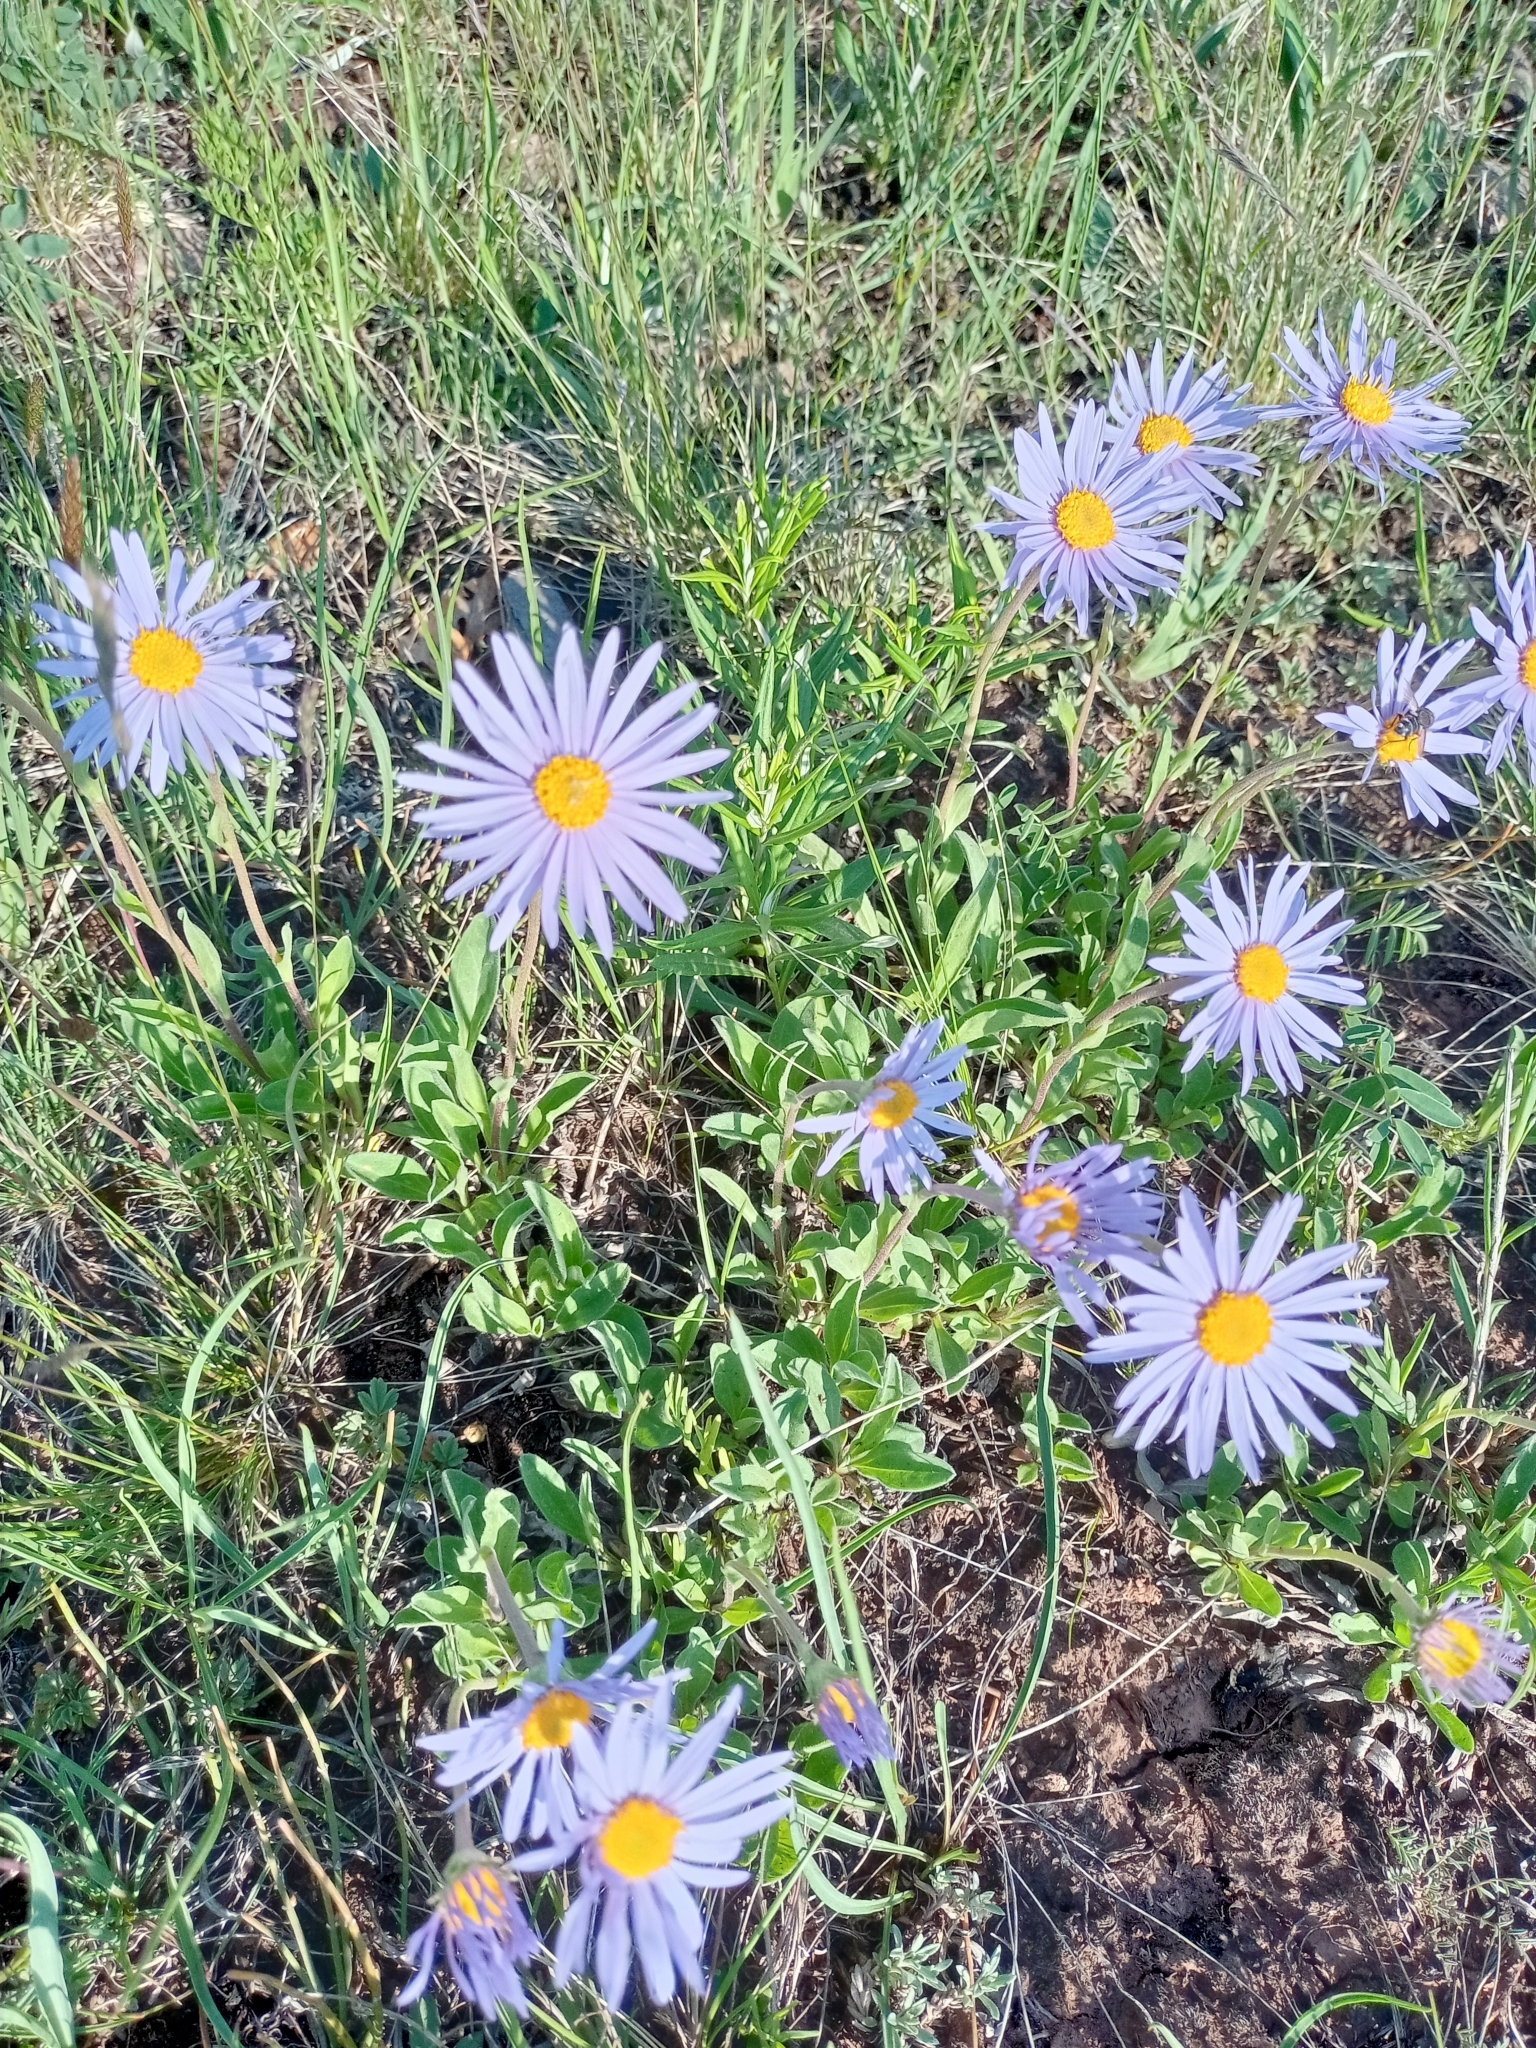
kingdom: Plantae
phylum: Tracheophyta
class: Magnoliopsida
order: Asterales
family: Asteraceae
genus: Aster
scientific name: Aster alpinus
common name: Alpine aster
